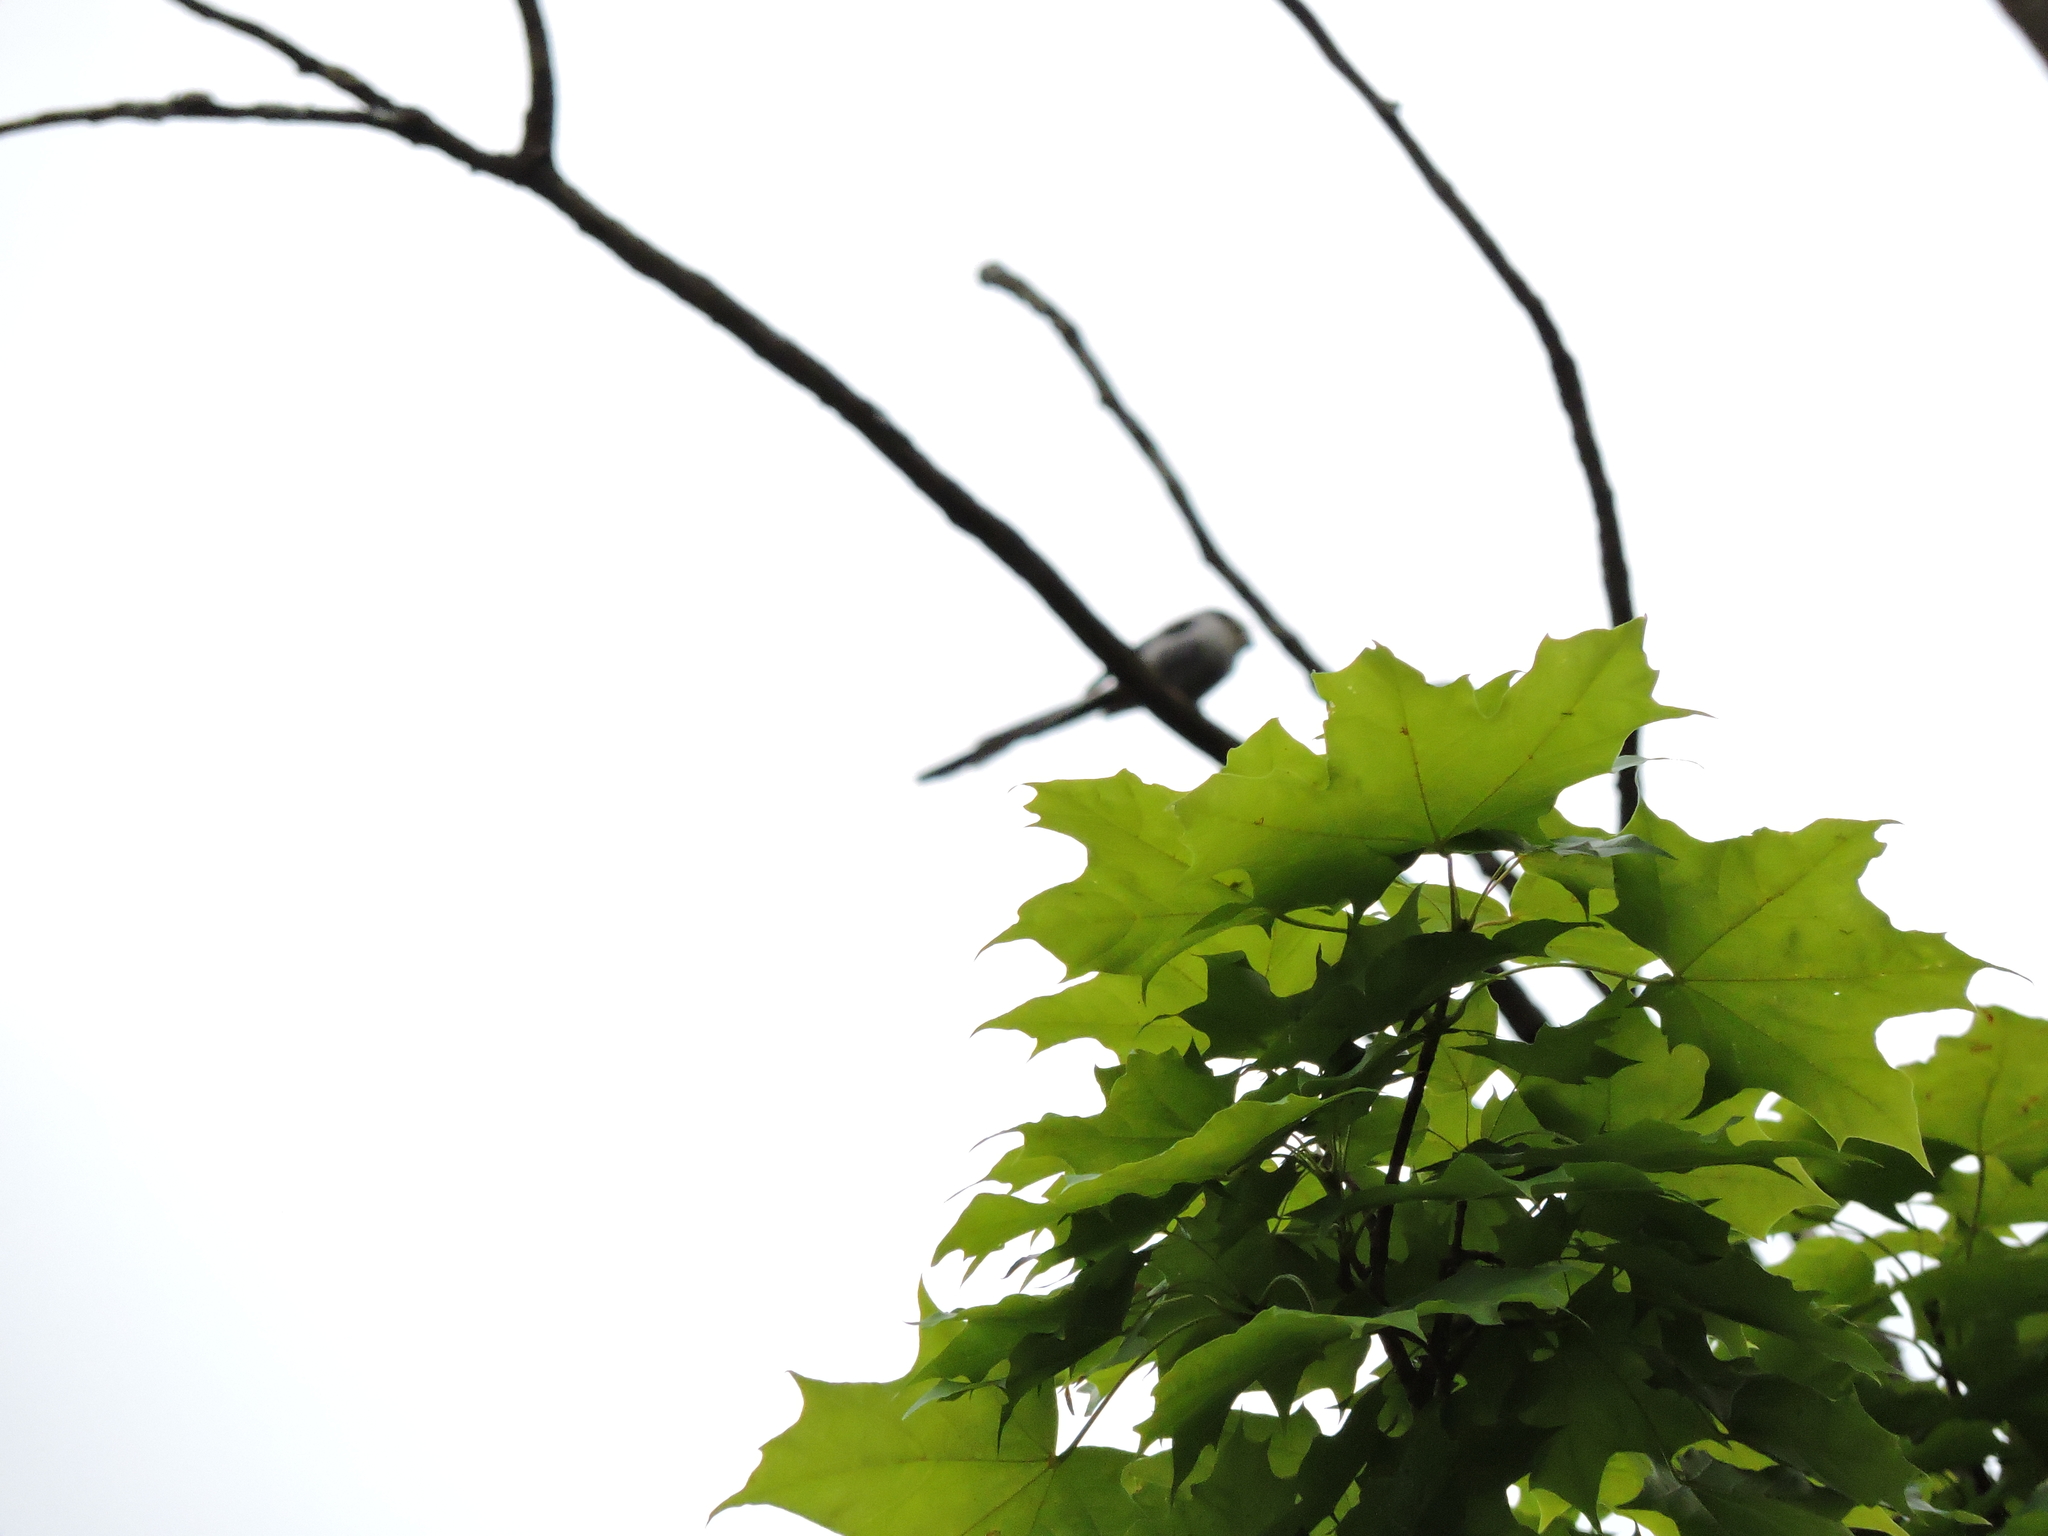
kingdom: Animalia
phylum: Chordata
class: Aves
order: Passeriformes
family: Aegithalidae
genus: Aegithalos
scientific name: Aegithalos caudatus
